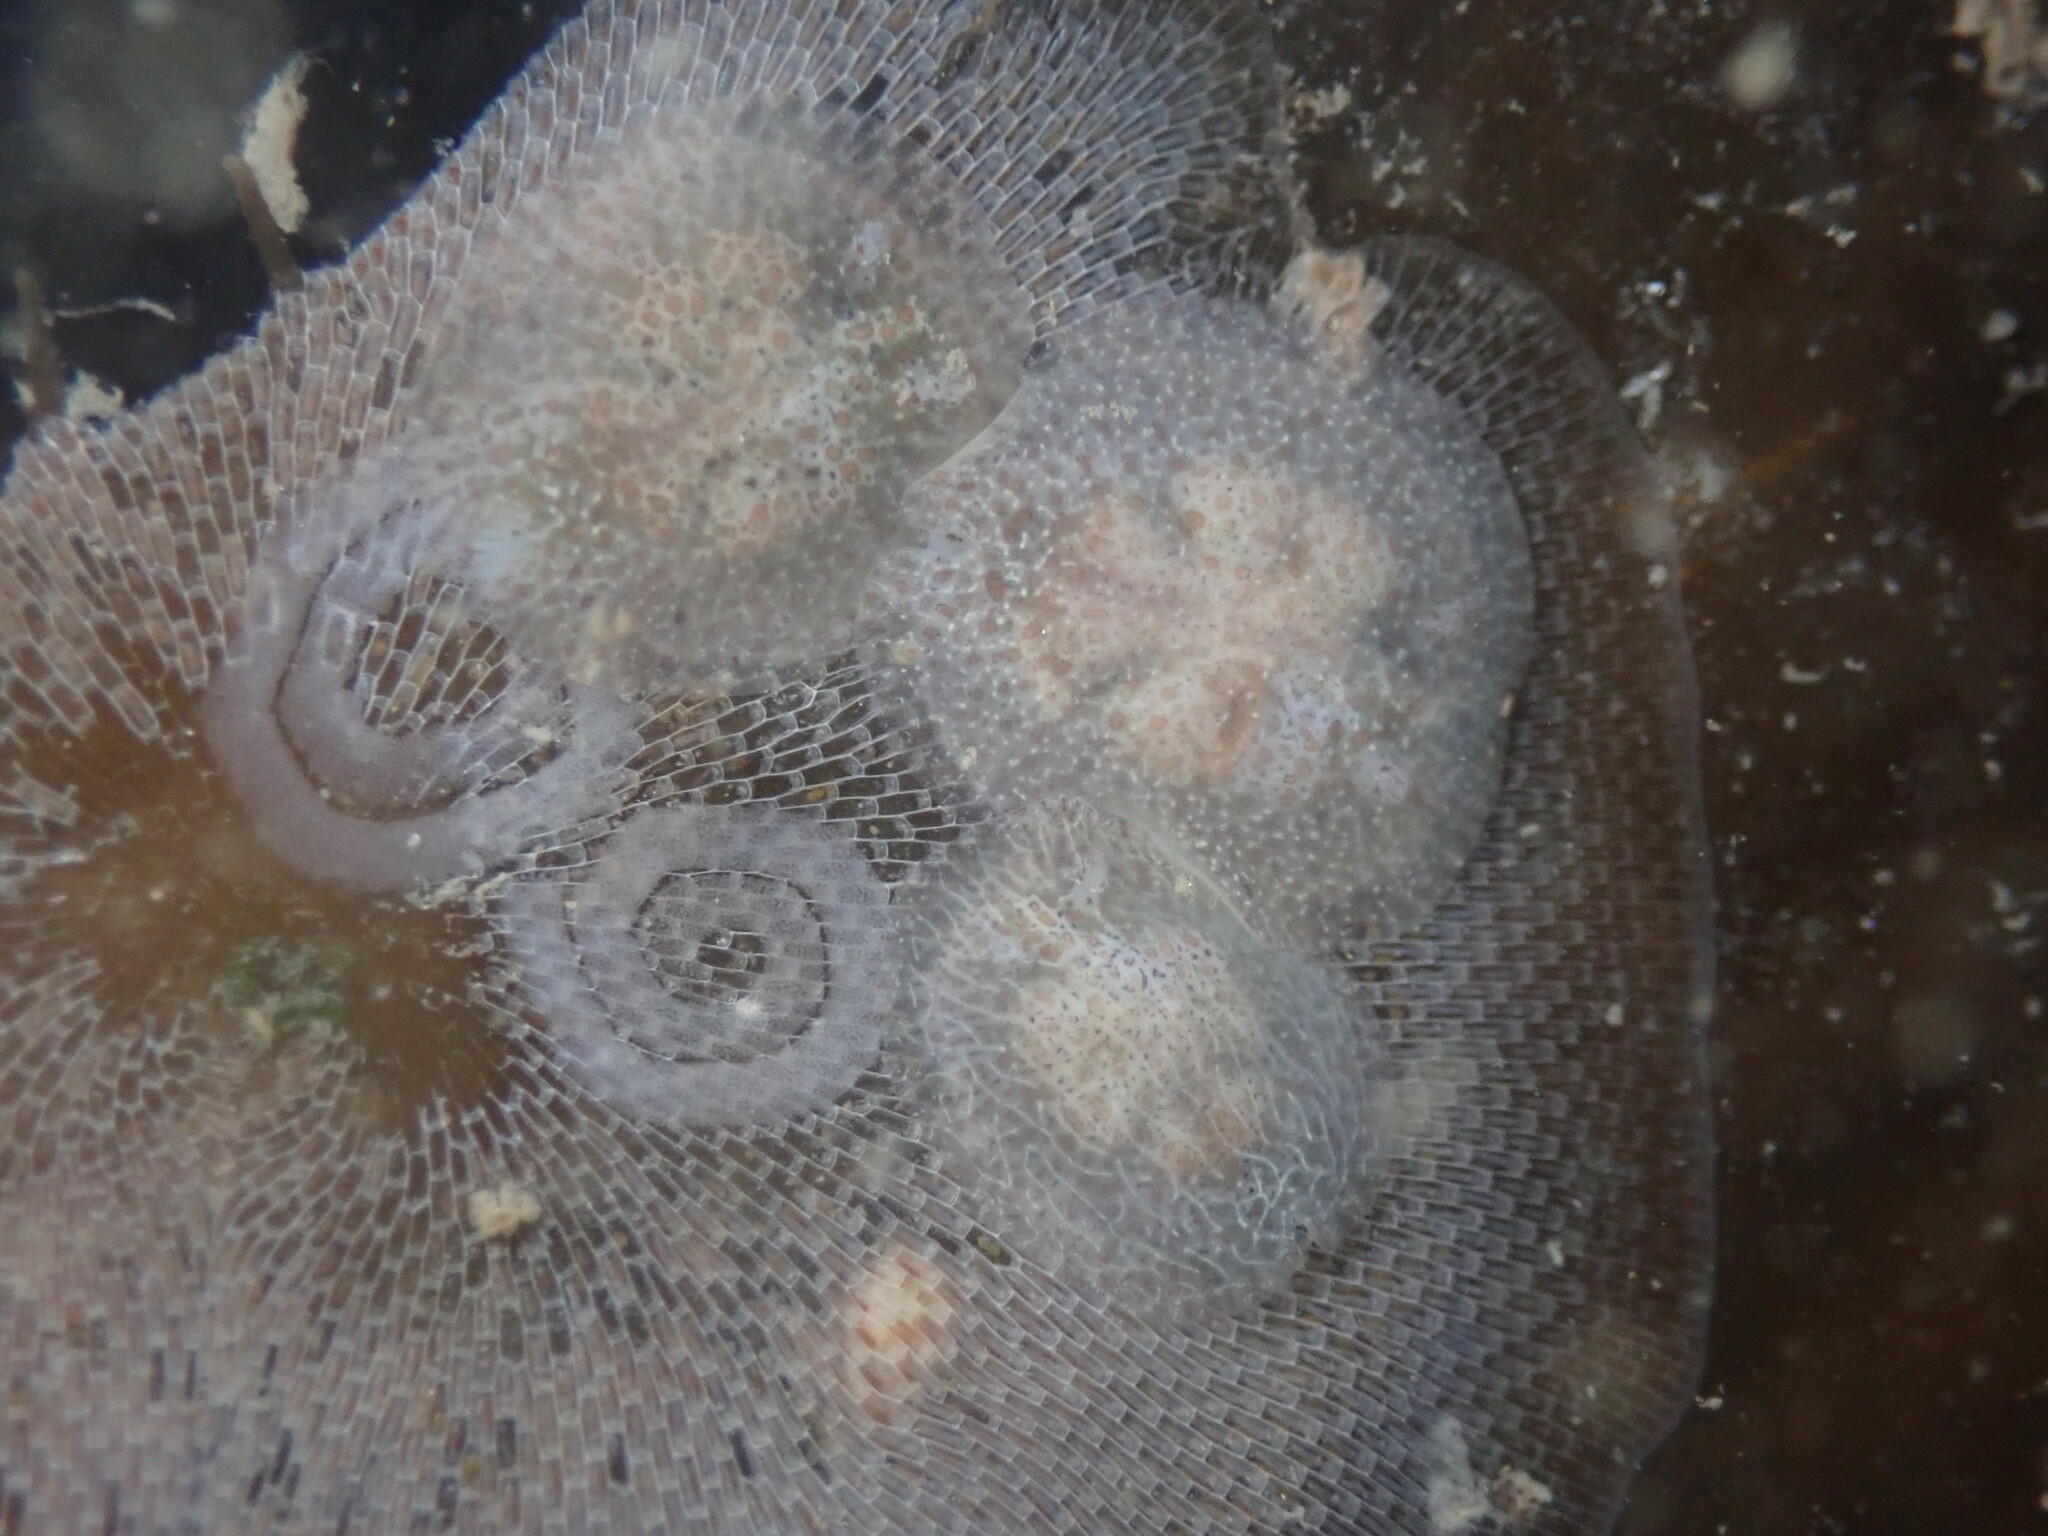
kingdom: Animalia
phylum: Mollusca
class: Gastropoda
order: Nudibranchia
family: Corambidae
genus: Corambe
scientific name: Corambe pacifica
